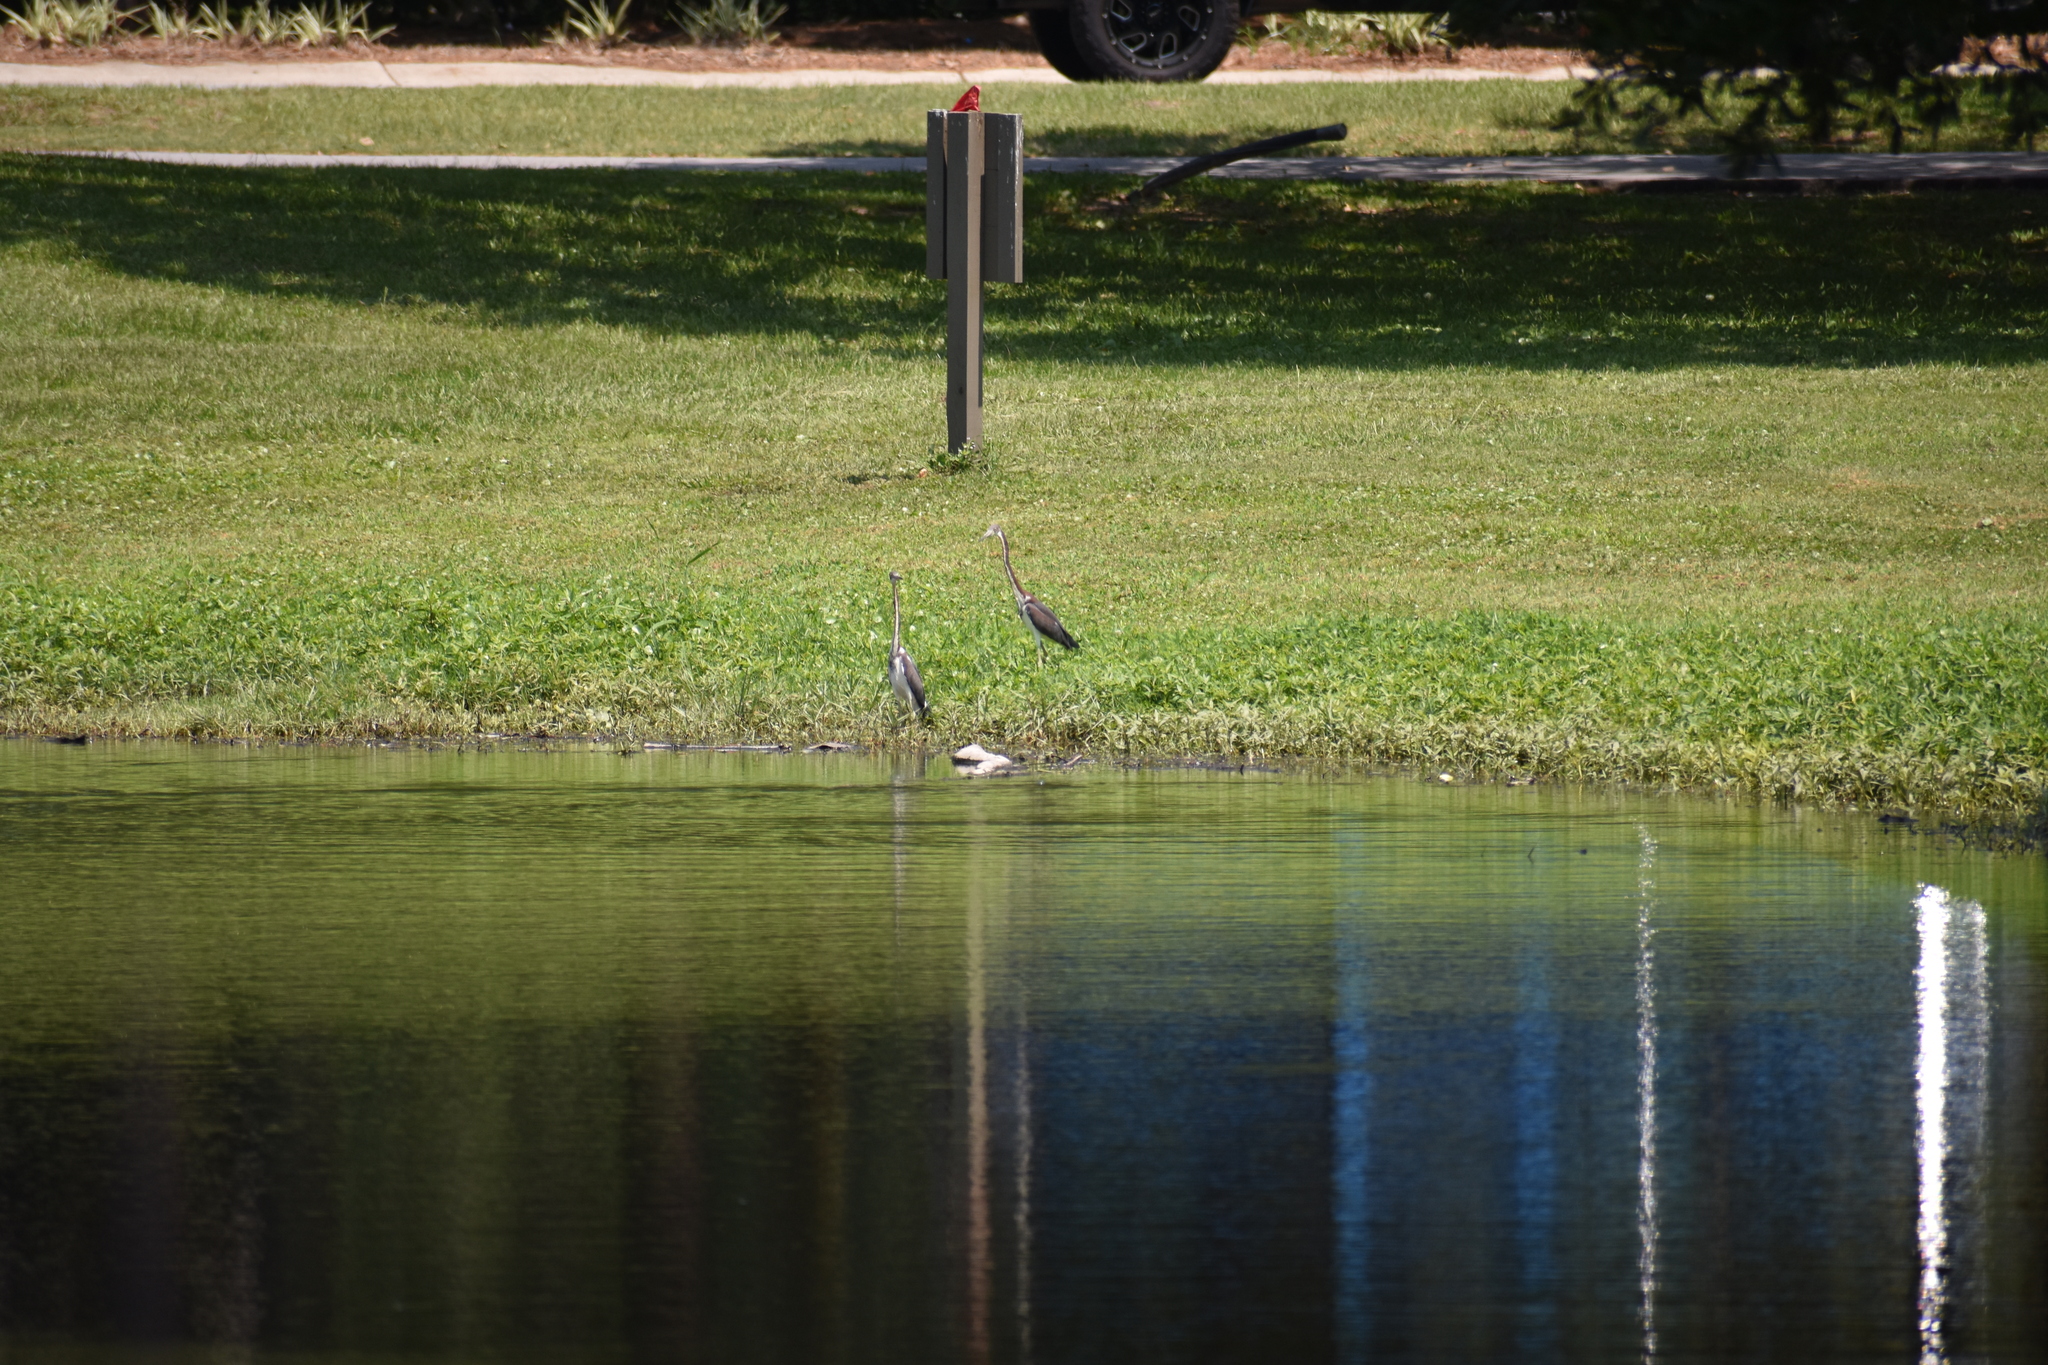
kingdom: Animalia
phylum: Chordata
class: Aves
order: Pelecaniformes
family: Ardeidae
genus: Egretta
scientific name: Egretta tricolor
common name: Tricolored heron
